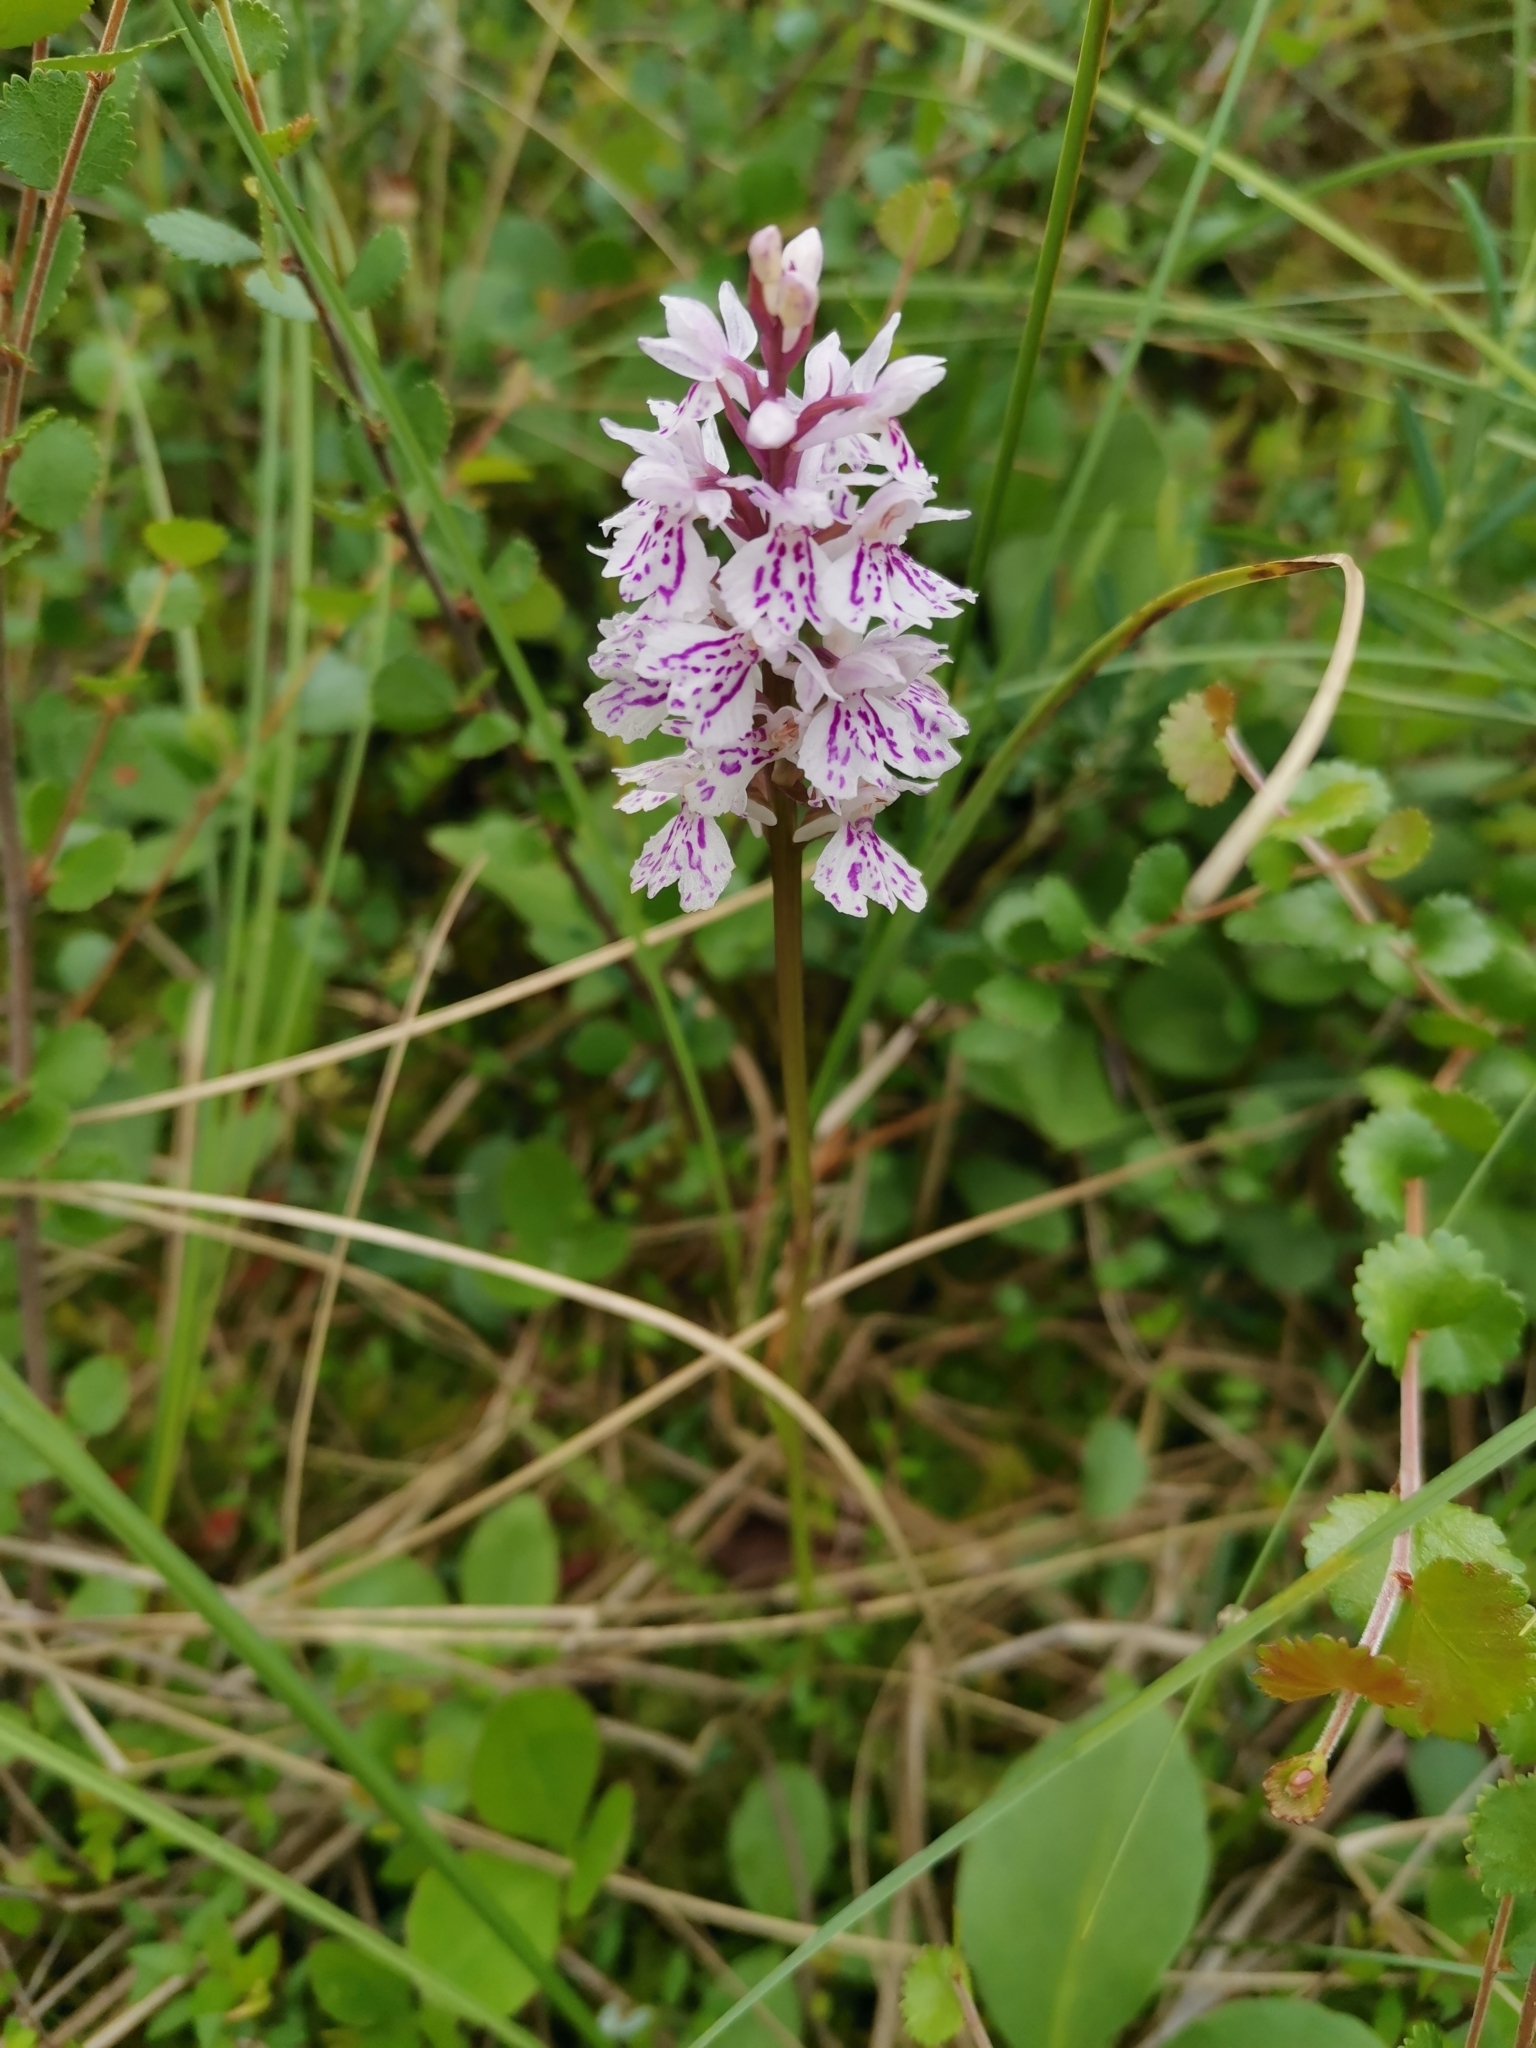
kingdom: Plantae
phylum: Tracheophyta
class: Liliopsida
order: Asparagales
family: Orchidaceae
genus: Dactylorhiza
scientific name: Dactylorhiza maculata
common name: Heath spotted-orchid
